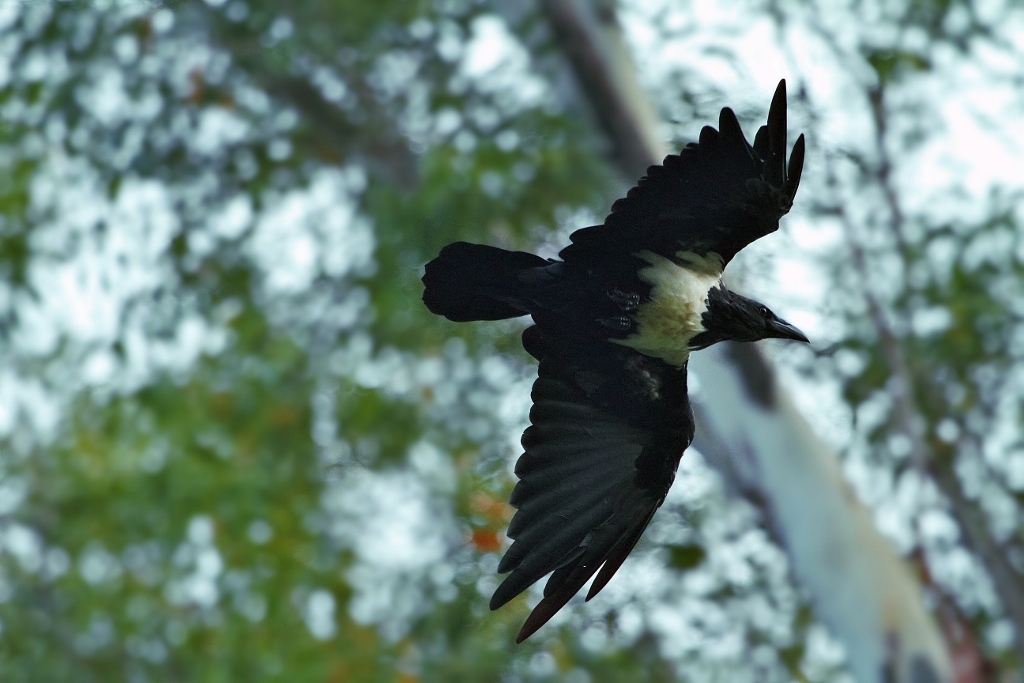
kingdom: Animalia
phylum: Chordata
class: Aves
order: Passeriformes
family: Corvidae
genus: Corvus
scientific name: Corvus albus
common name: Pied crow
